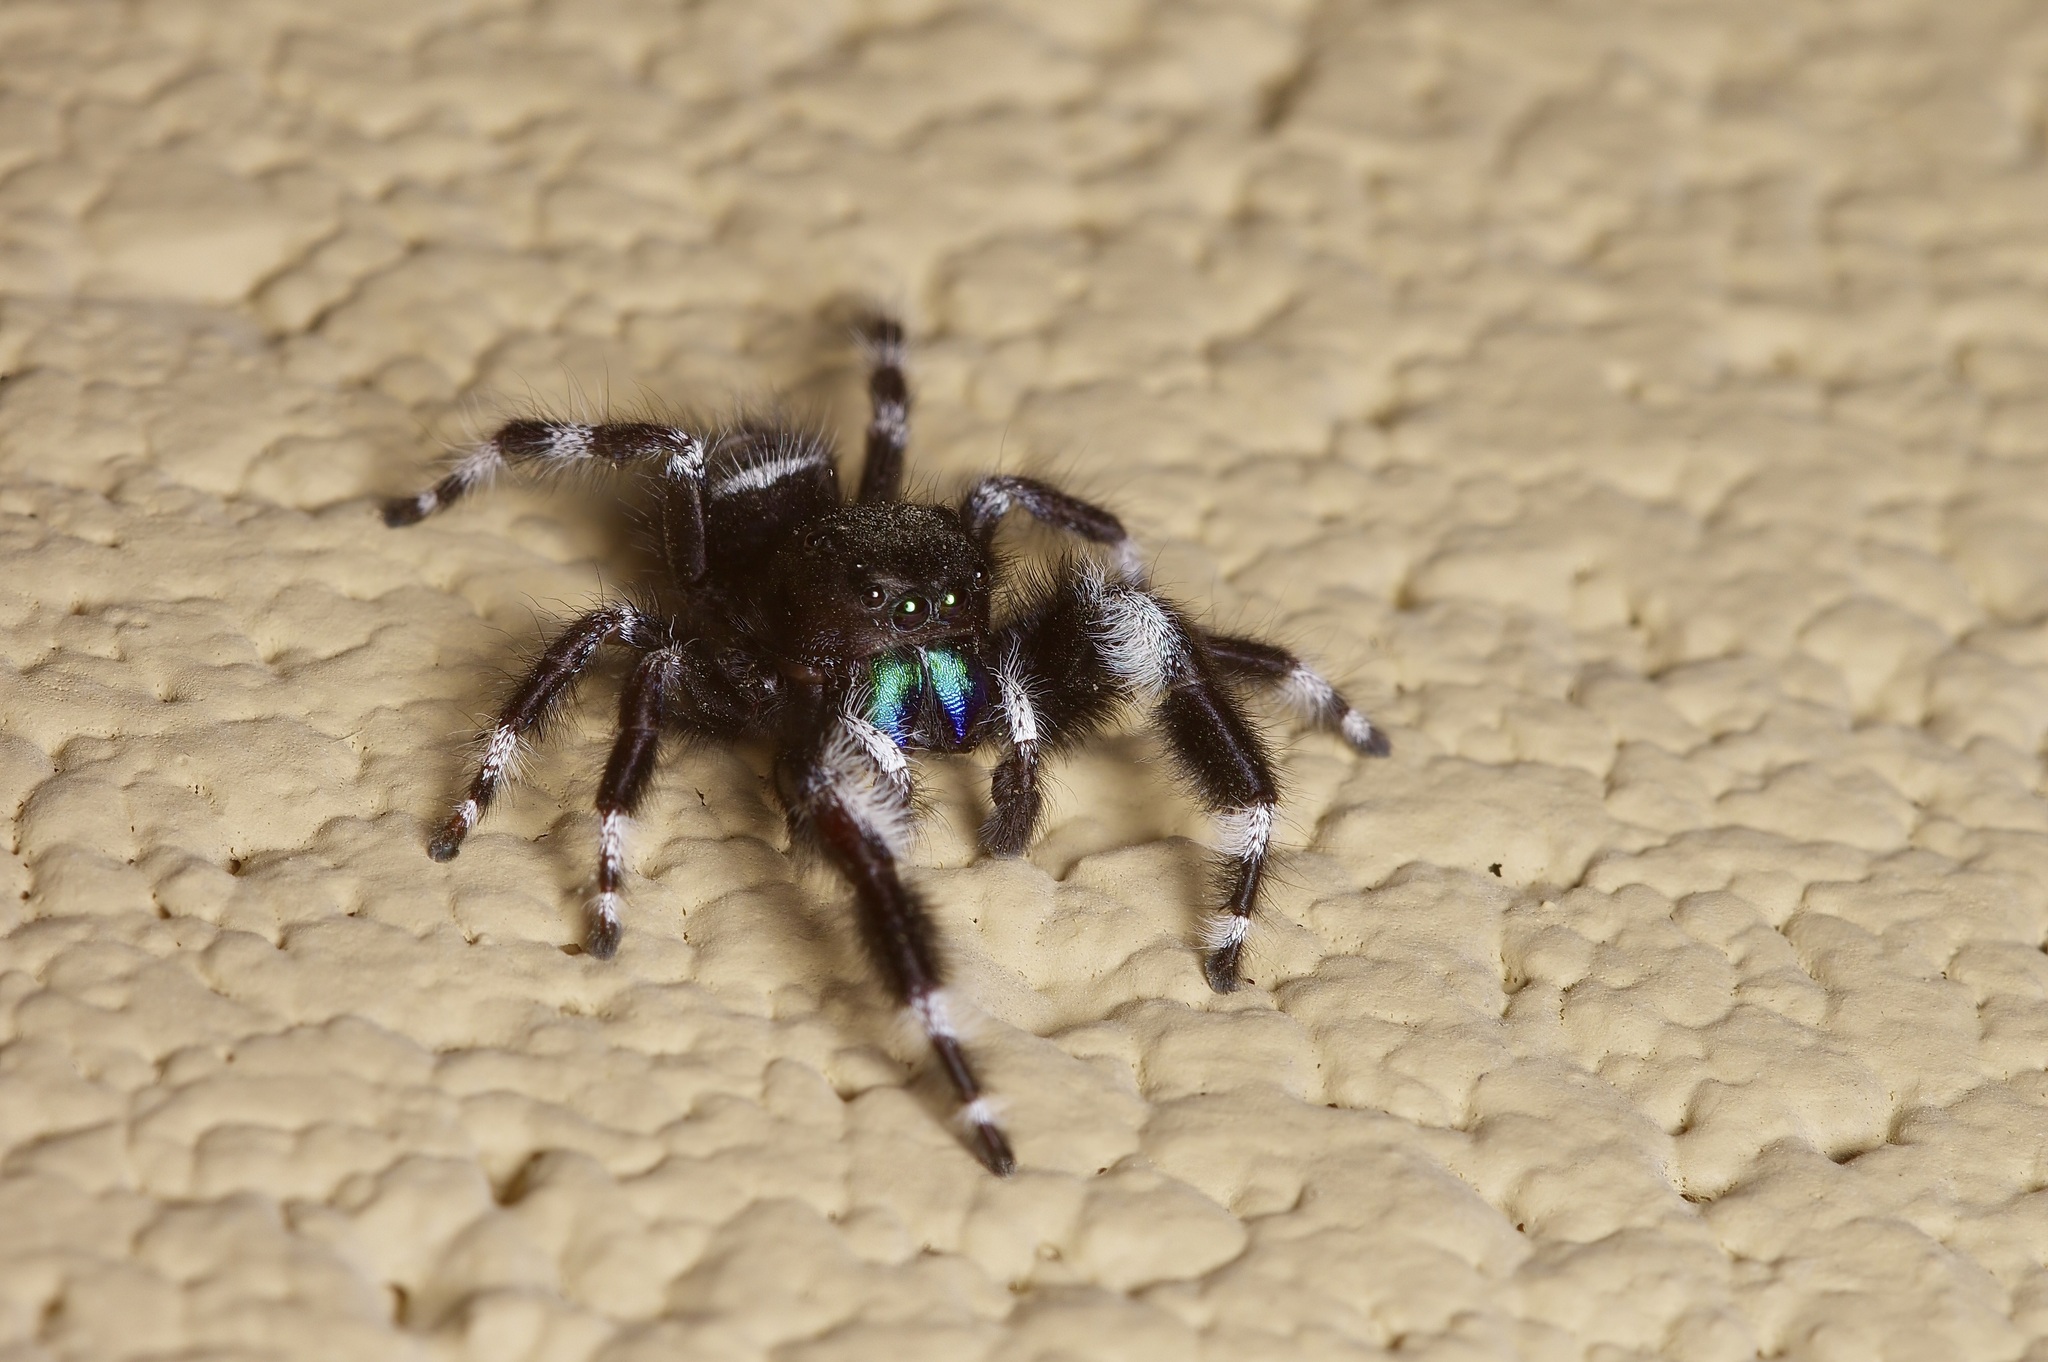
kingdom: Animalia
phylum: Arthropoda
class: Arachnida
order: Araneae
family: Salticidae
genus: Phidippus
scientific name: Phidippus audax
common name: Bold jumper
